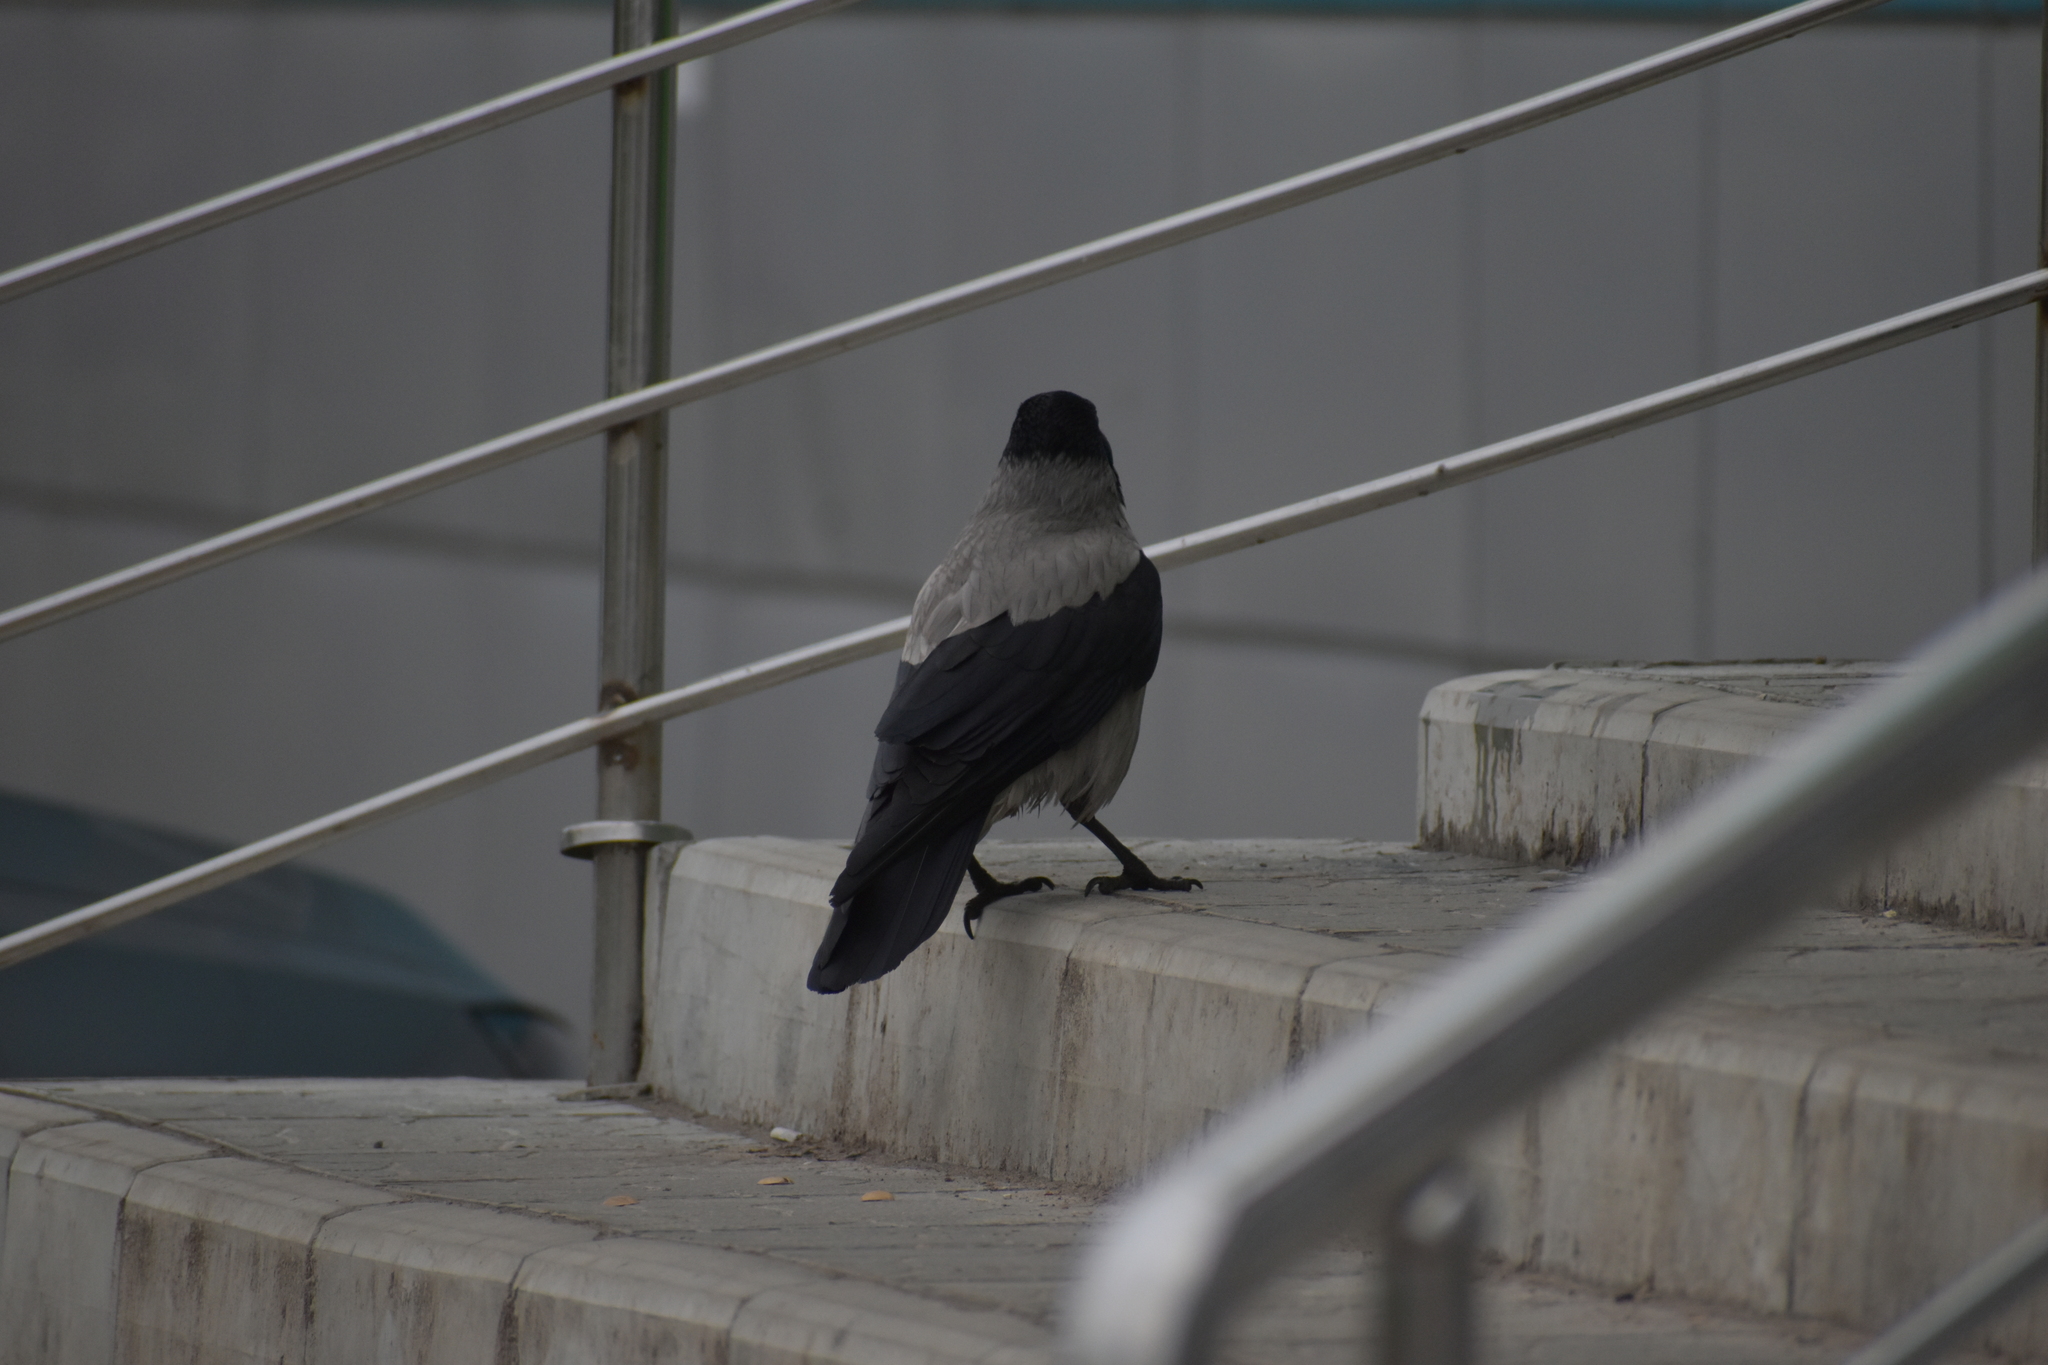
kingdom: Animalia
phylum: Chordata
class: Aves
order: Passeriformes
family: Corvidae
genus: Corvus
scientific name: Corvus cornix
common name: Hooded crow
